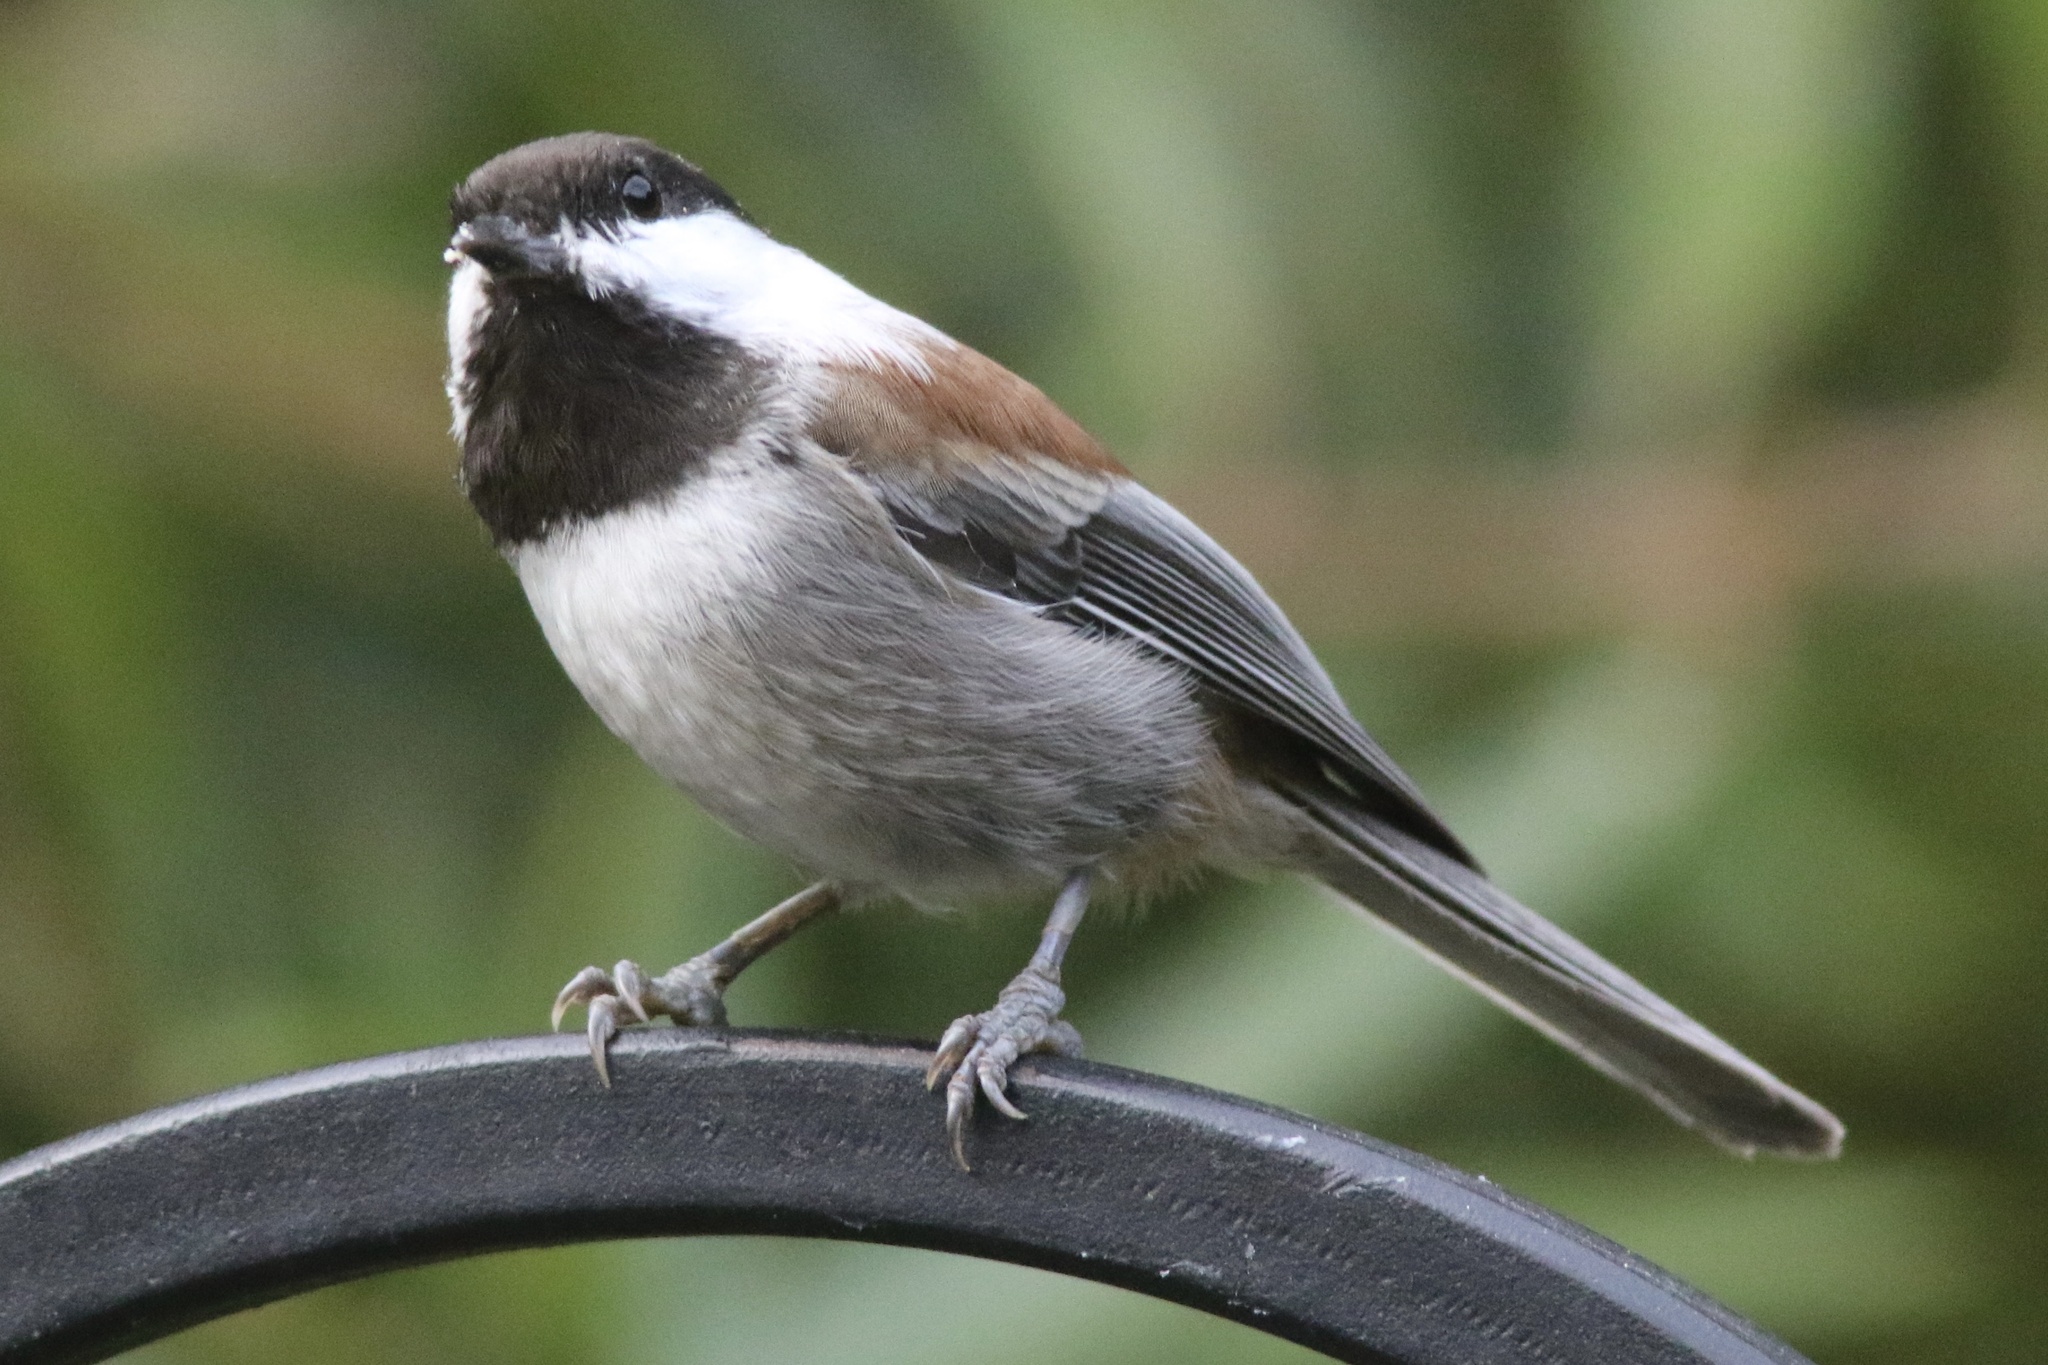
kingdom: Animalia
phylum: Chordata
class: Aves
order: Passeriformes
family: Paridae
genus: Poecile
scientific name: Poecile rufescens
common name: Chestnut-backed chickadee
